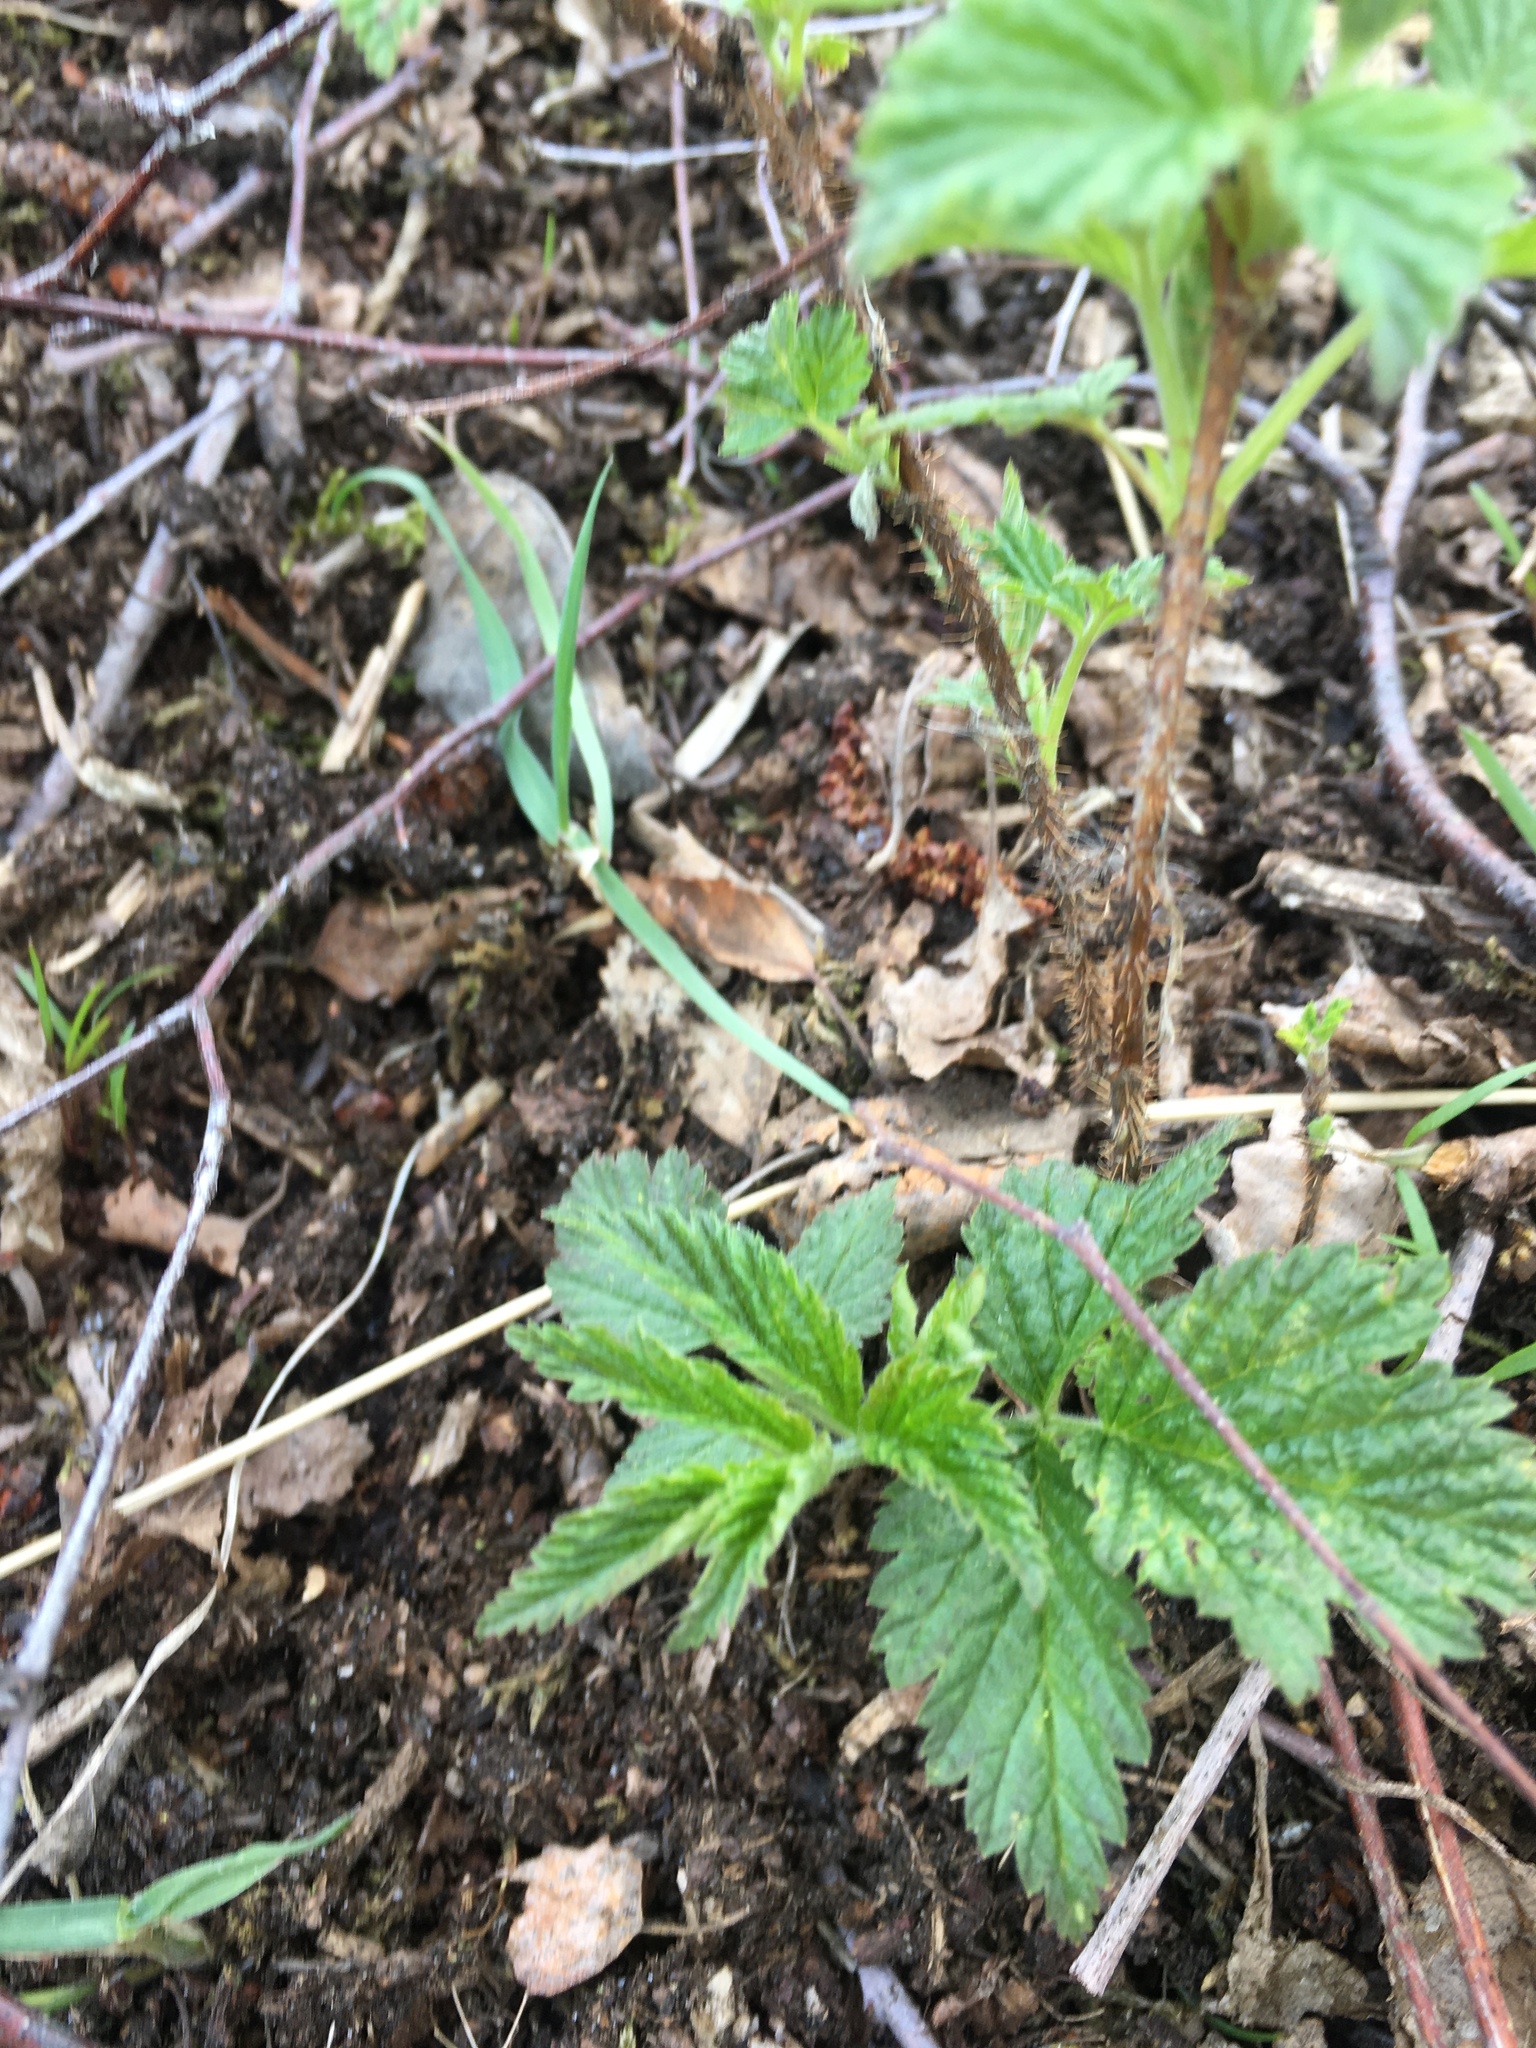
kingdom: Plantae
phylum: Tracheophyta
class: Magnoliopsida
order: Rosales
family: Rosaceae
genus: Filipendula
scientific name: Filipendula ulmaria
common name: Meadowsweet
